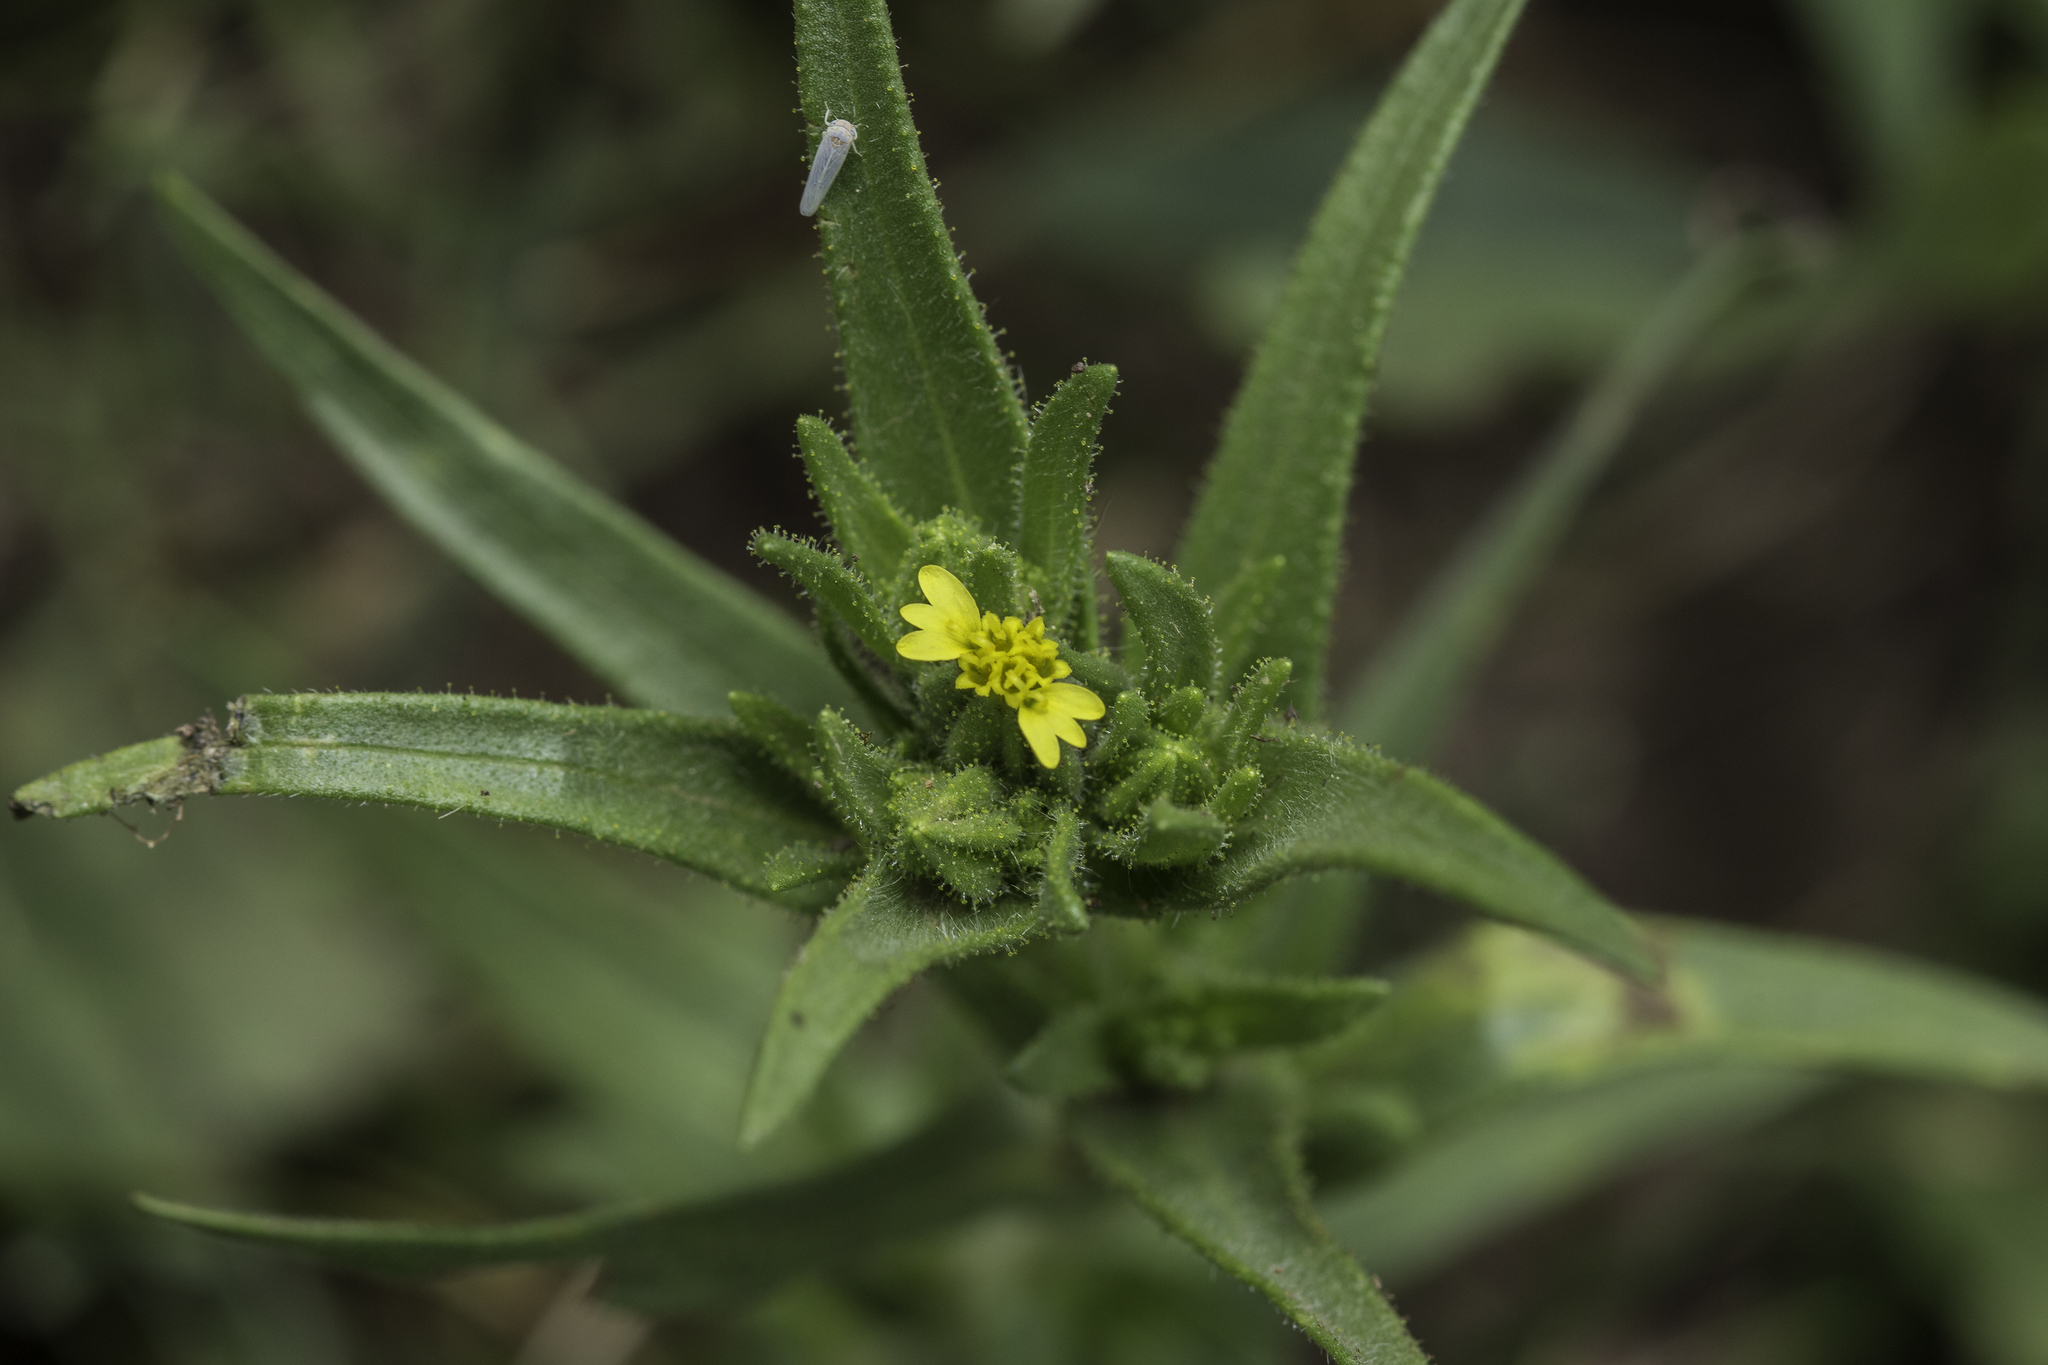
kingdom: Plantae
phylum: Tracheophyta
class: Magnoliopsida
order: Asterales
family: Asteraceae
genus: Madia
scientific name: Madia glomerata
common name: Mountain tarweed
